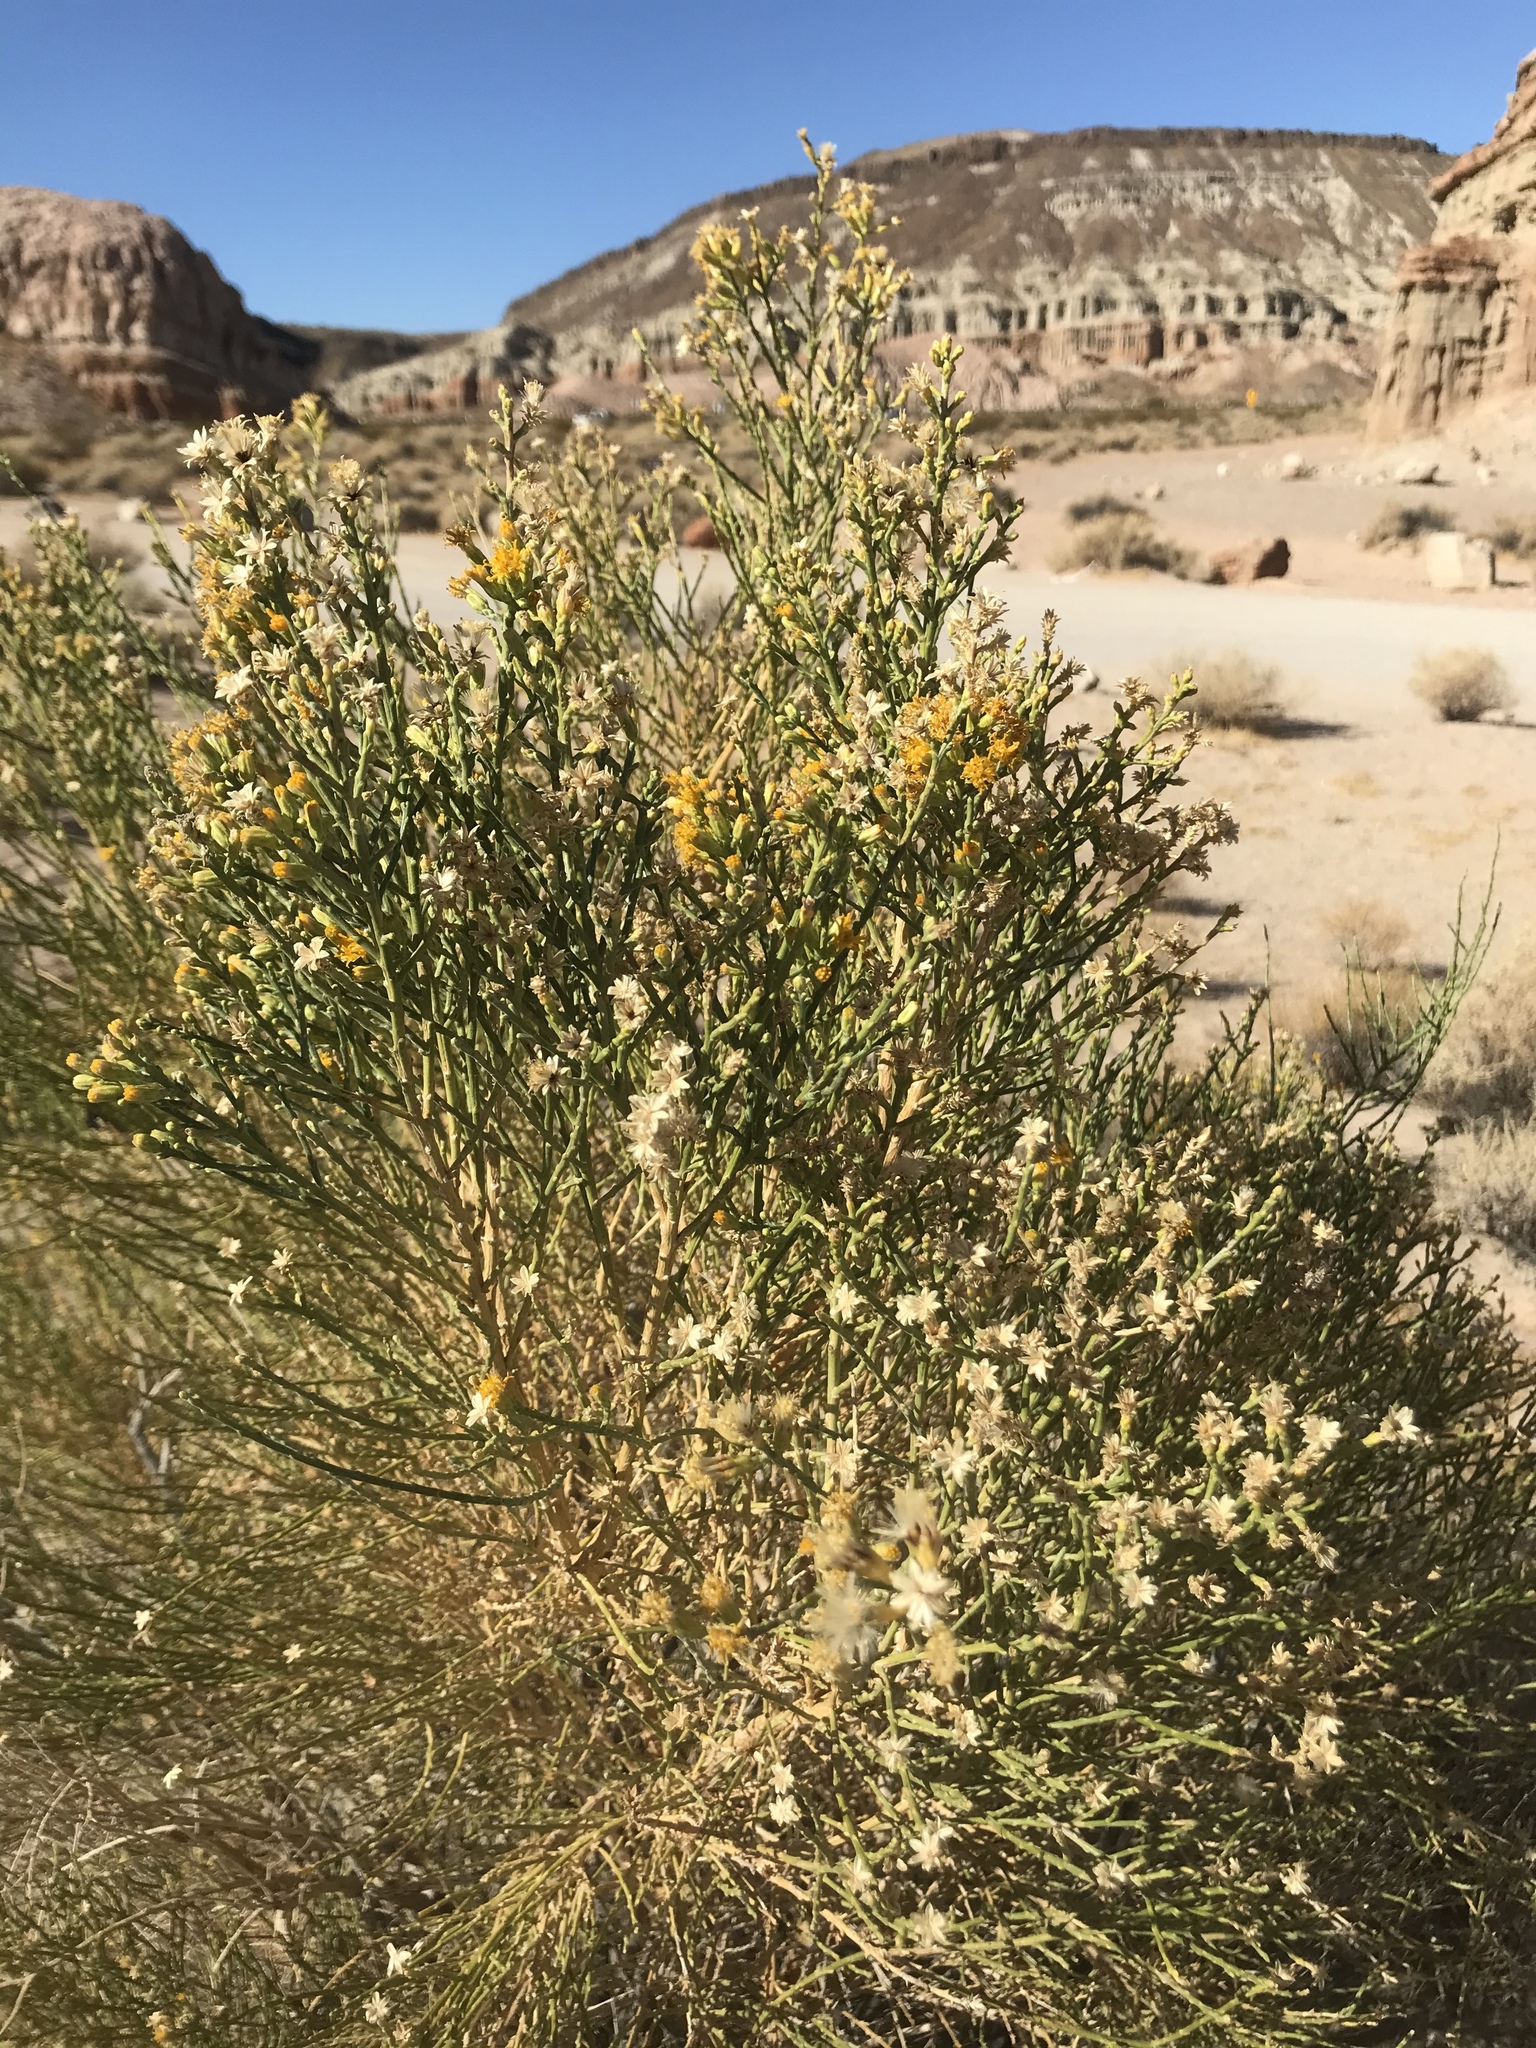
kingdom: Plantae
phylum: Tracheophyta
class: Magnoliopsida
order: Asterales
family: Asteraceae
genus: Lepidospartum
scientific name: Lepidospartum squamatum
